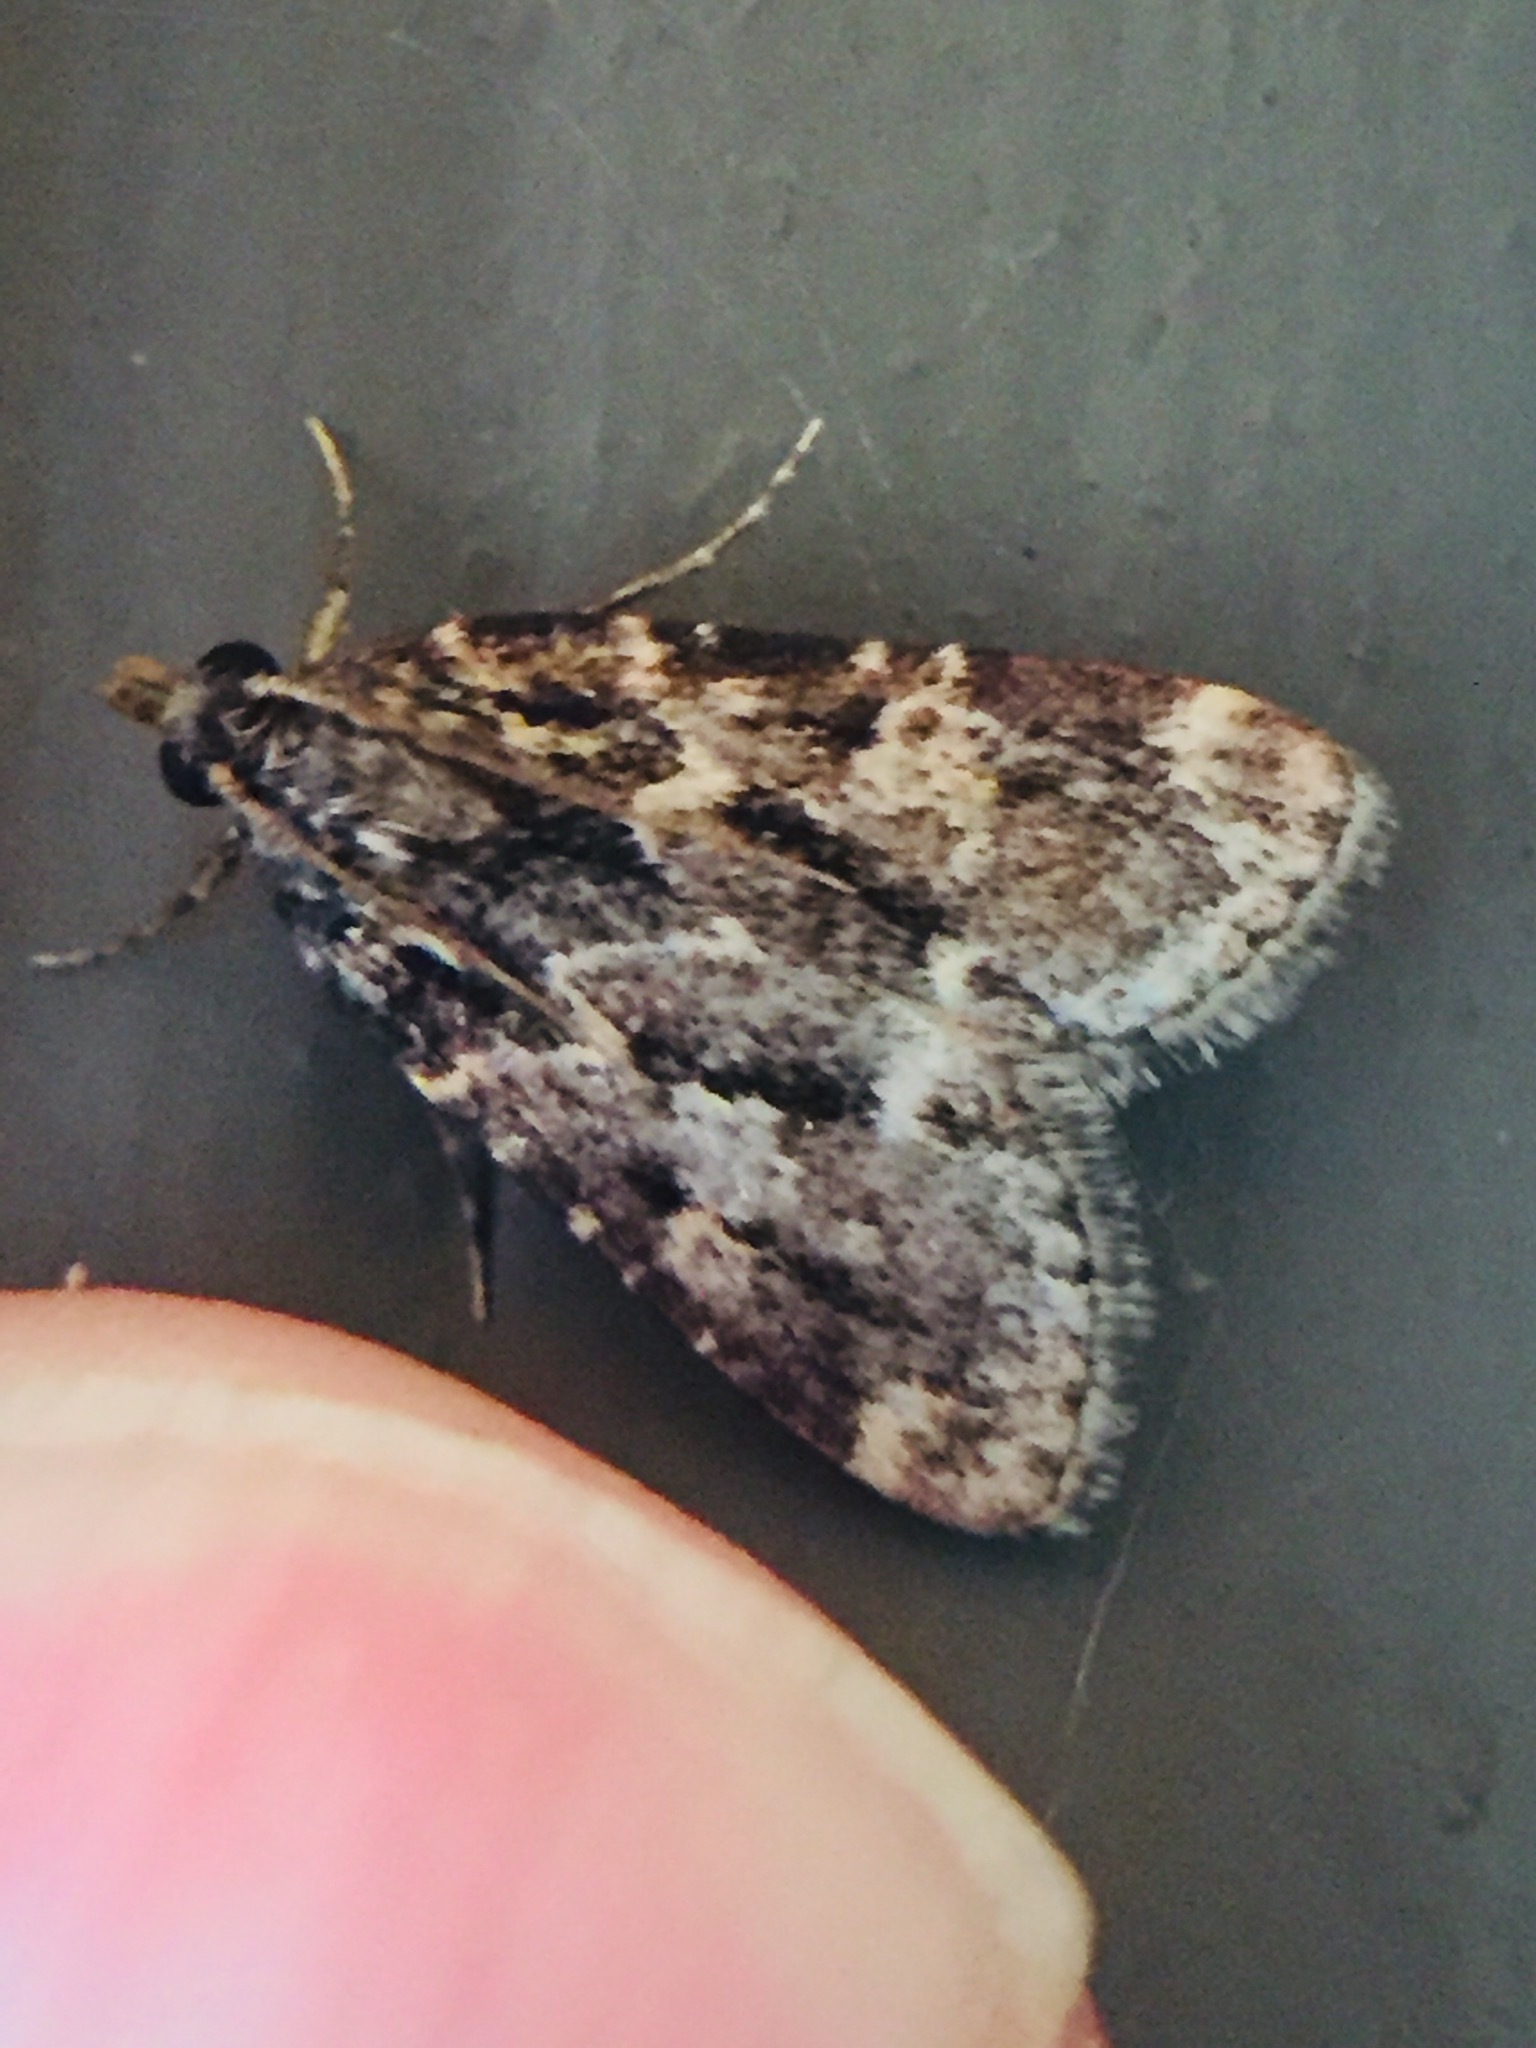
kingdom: Animalia
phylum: Arthropoda
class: Insecta
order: Lepidoptera
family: Pyralidae
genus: Aglossa
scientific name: Aglossa caprealis
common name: Small tabby
